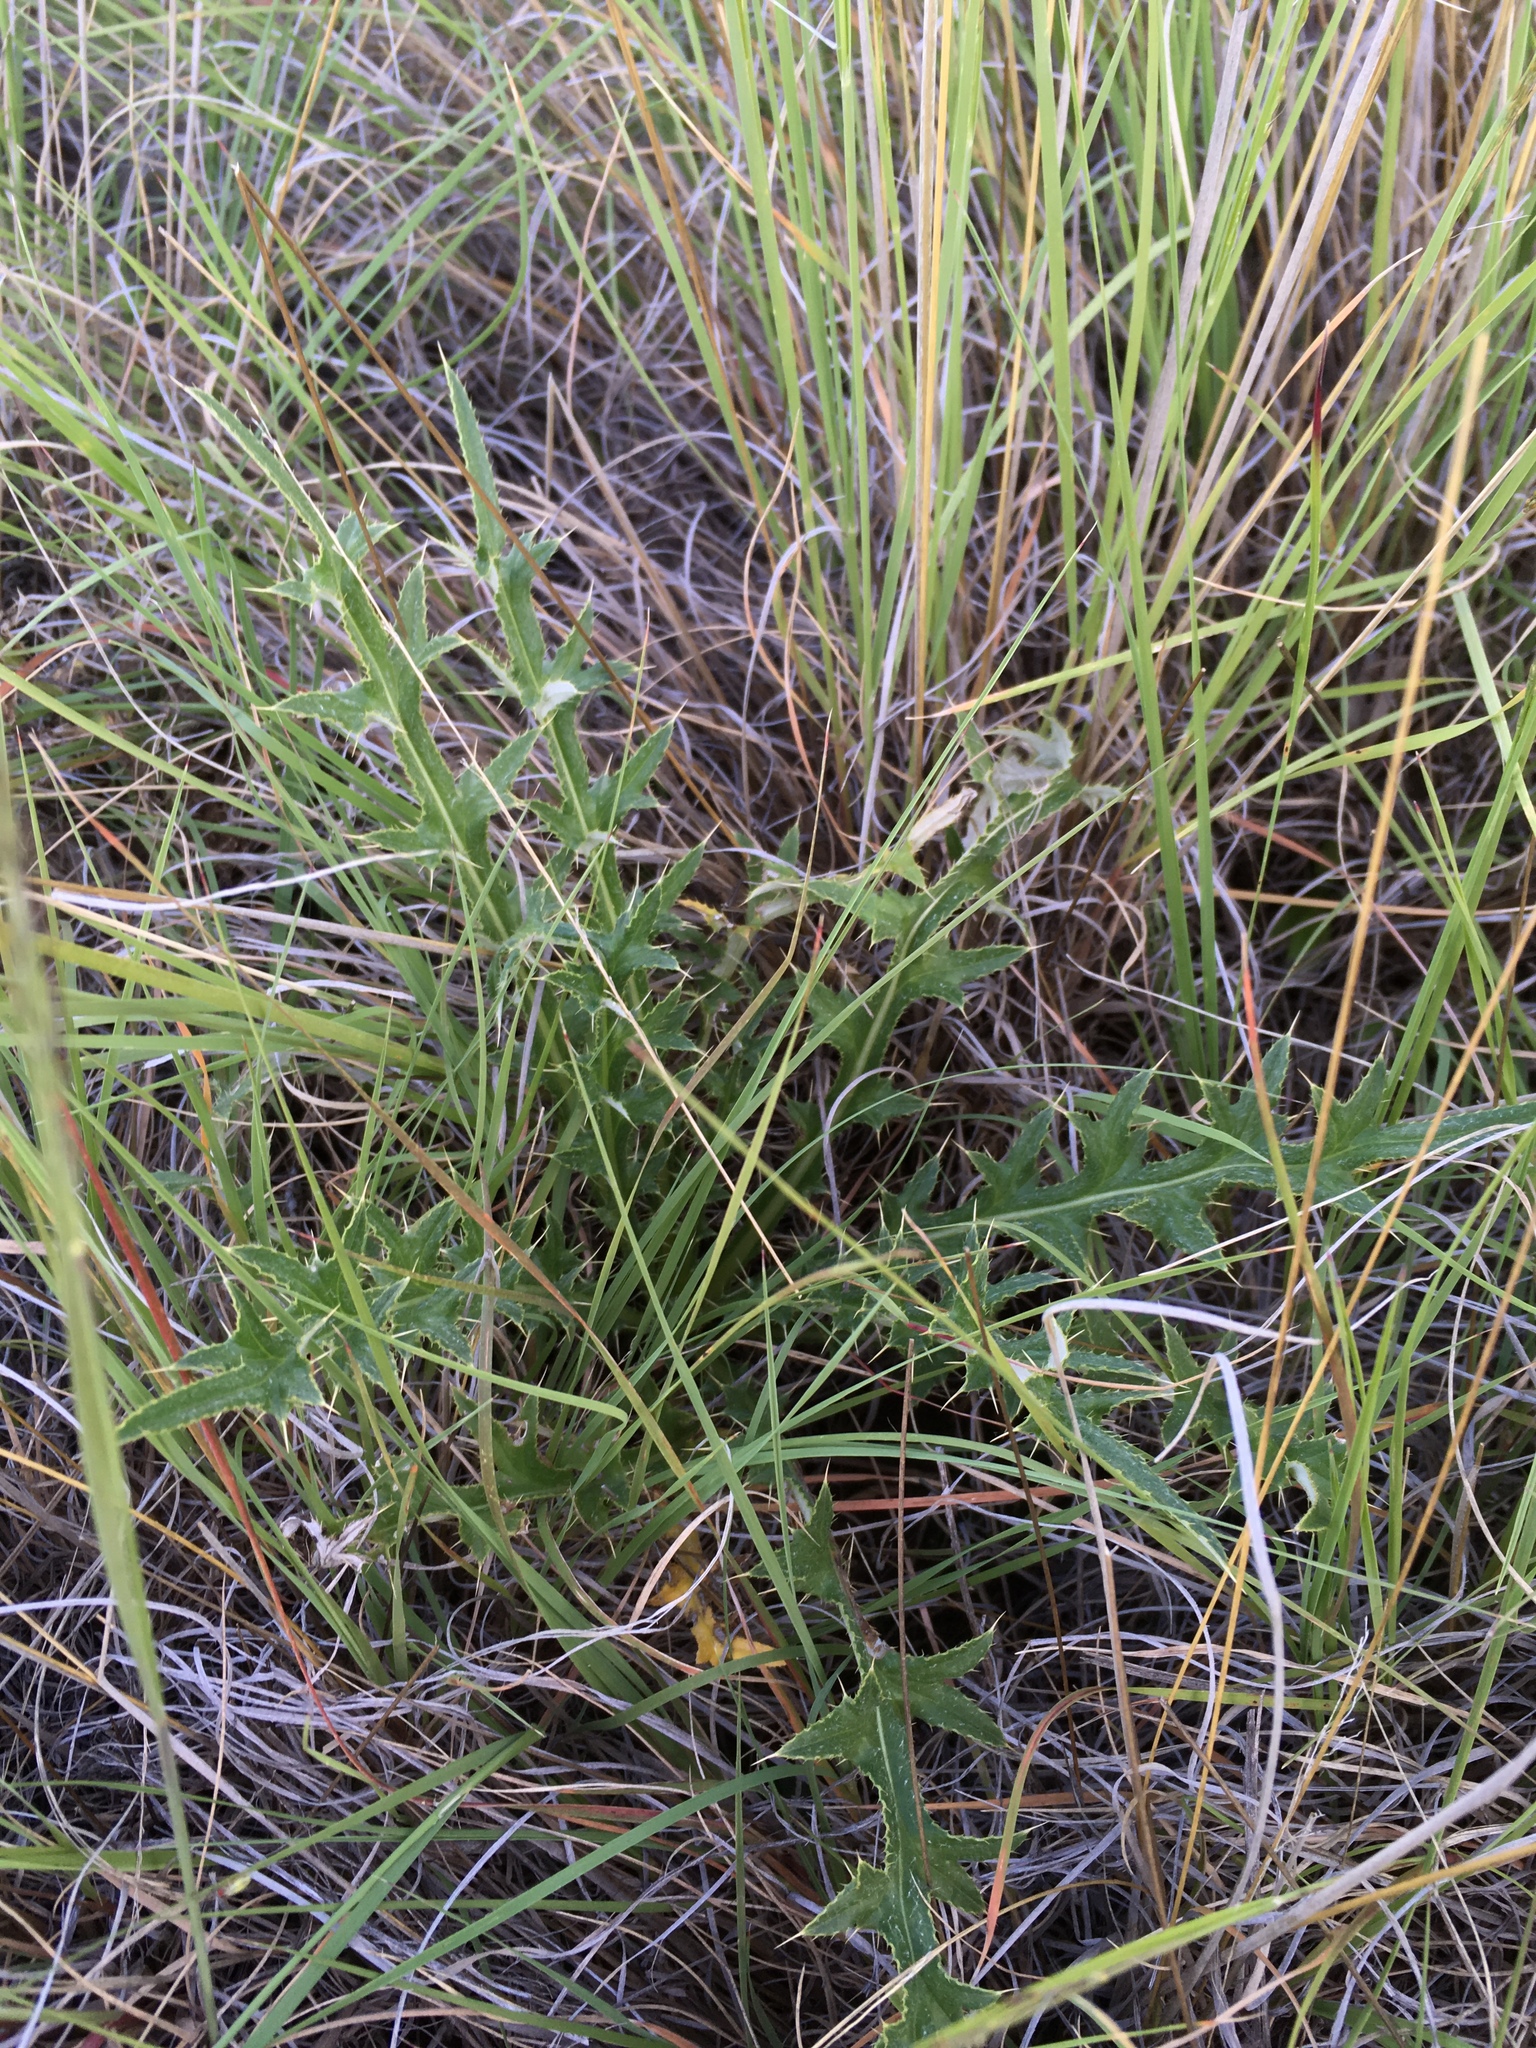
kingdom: Plantae
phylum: Tracheophyta
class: Magnoliopsida
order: Asterales
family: Asteraceae
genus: Cirsium
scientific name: Cirsium wheeleri
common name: Wheeler's thistle
